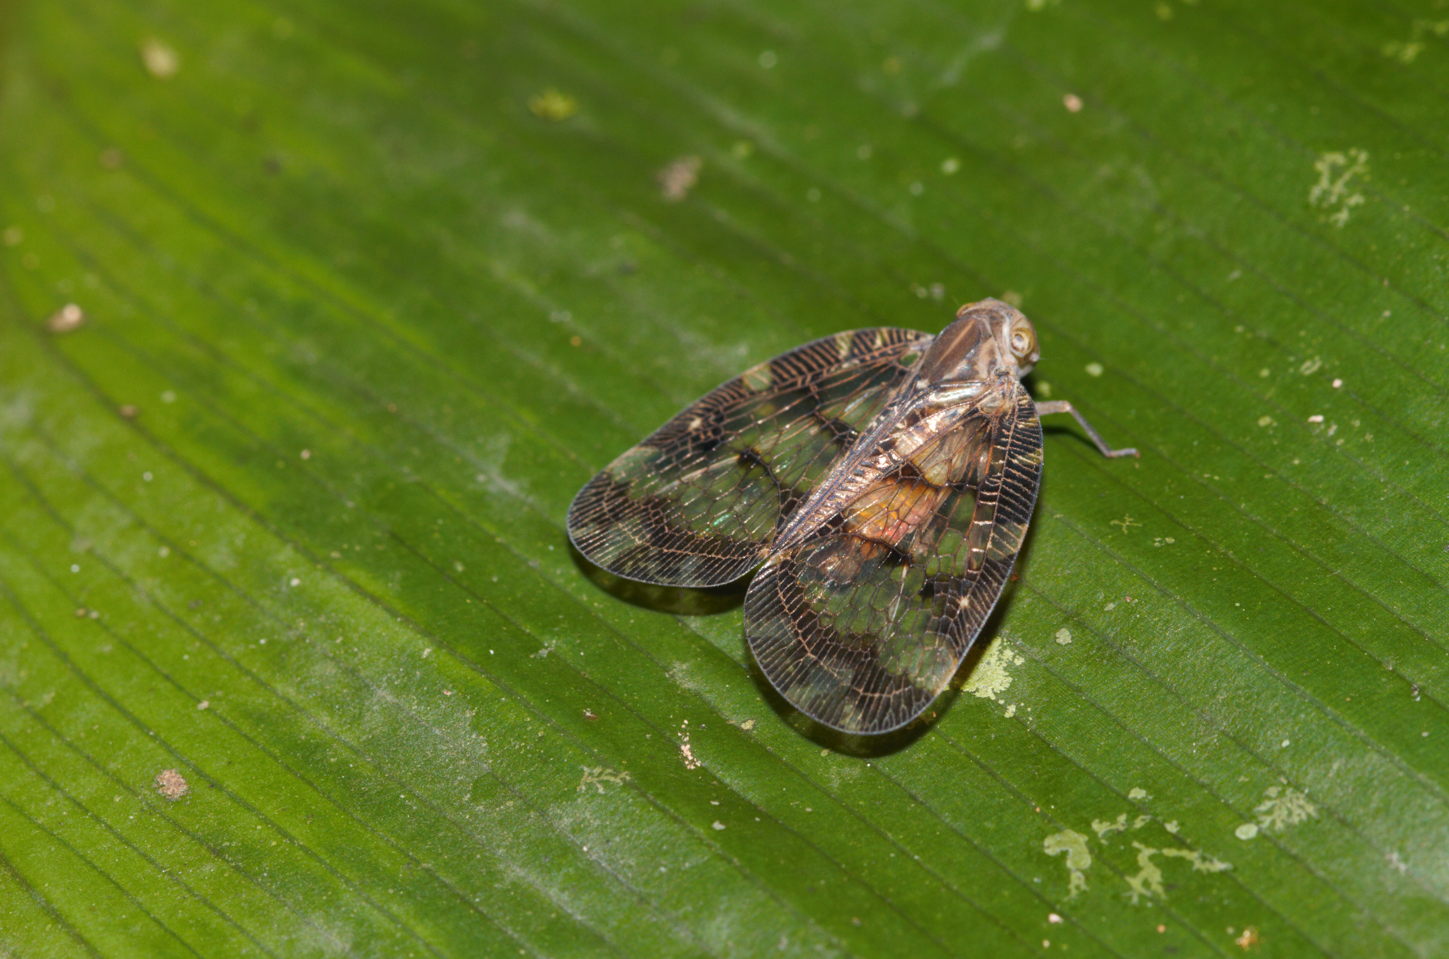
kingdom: Animalia
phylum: Arthropoda
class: Insecta
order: Hemiptera
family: Nogodinidae
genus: Nogodina
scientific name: Nogodina reticulata
